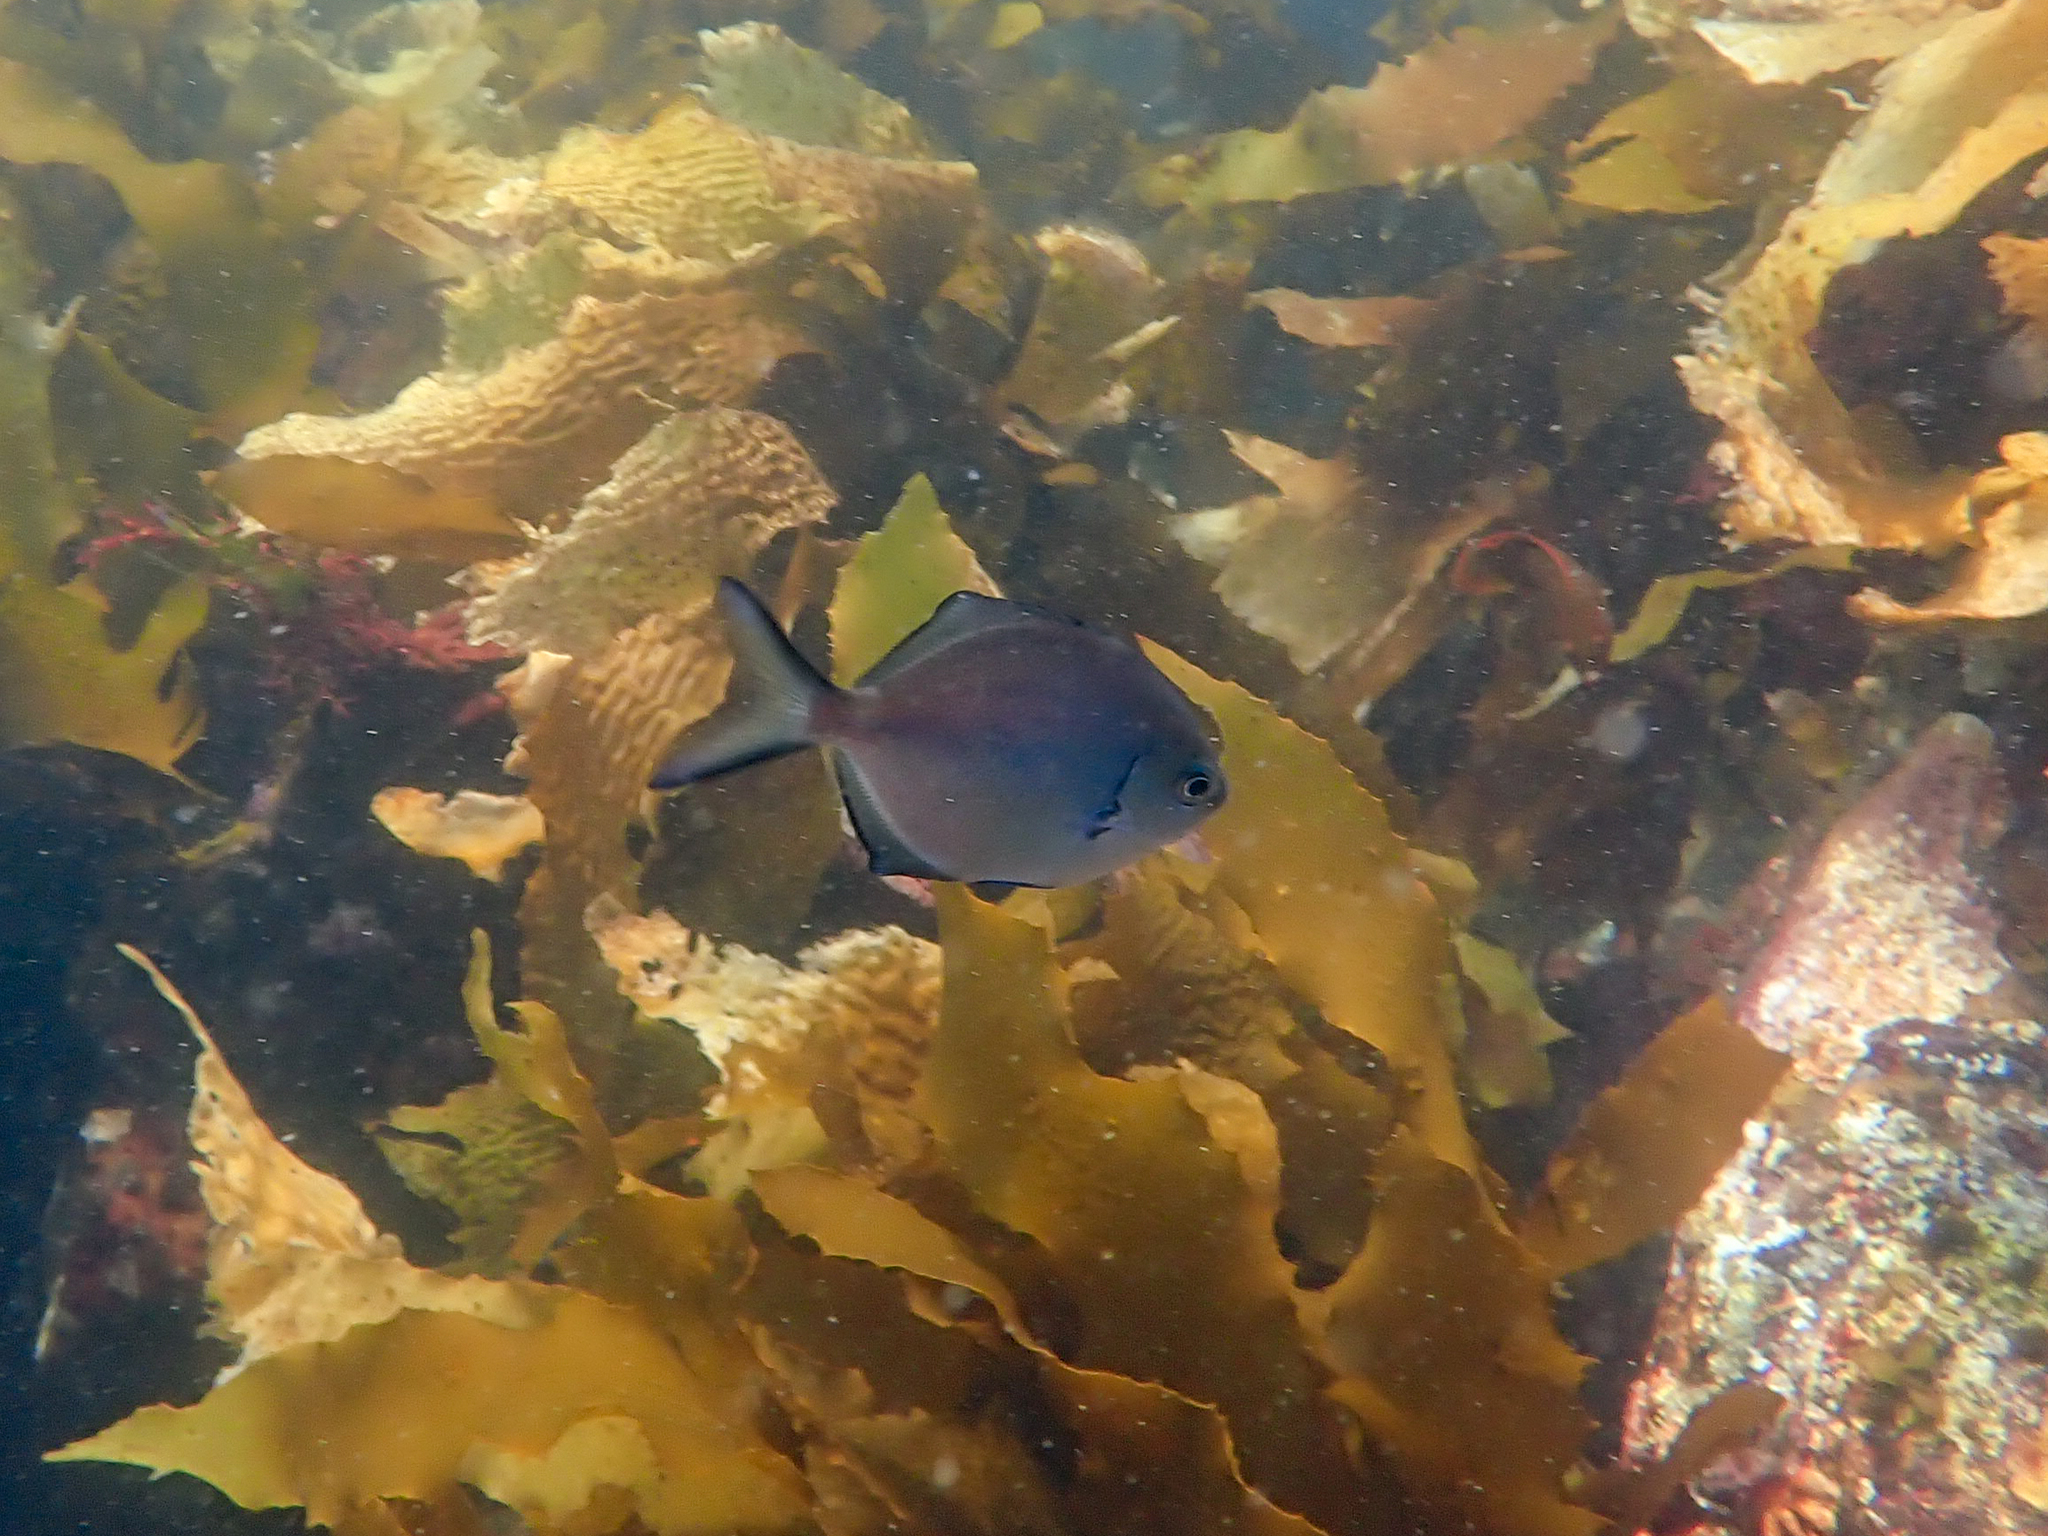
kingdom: Animalia
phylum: Chordata
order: Perciformes
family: Kyphosidae
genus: Scorpis
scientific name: Scorpis lineolata
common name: Sweep
